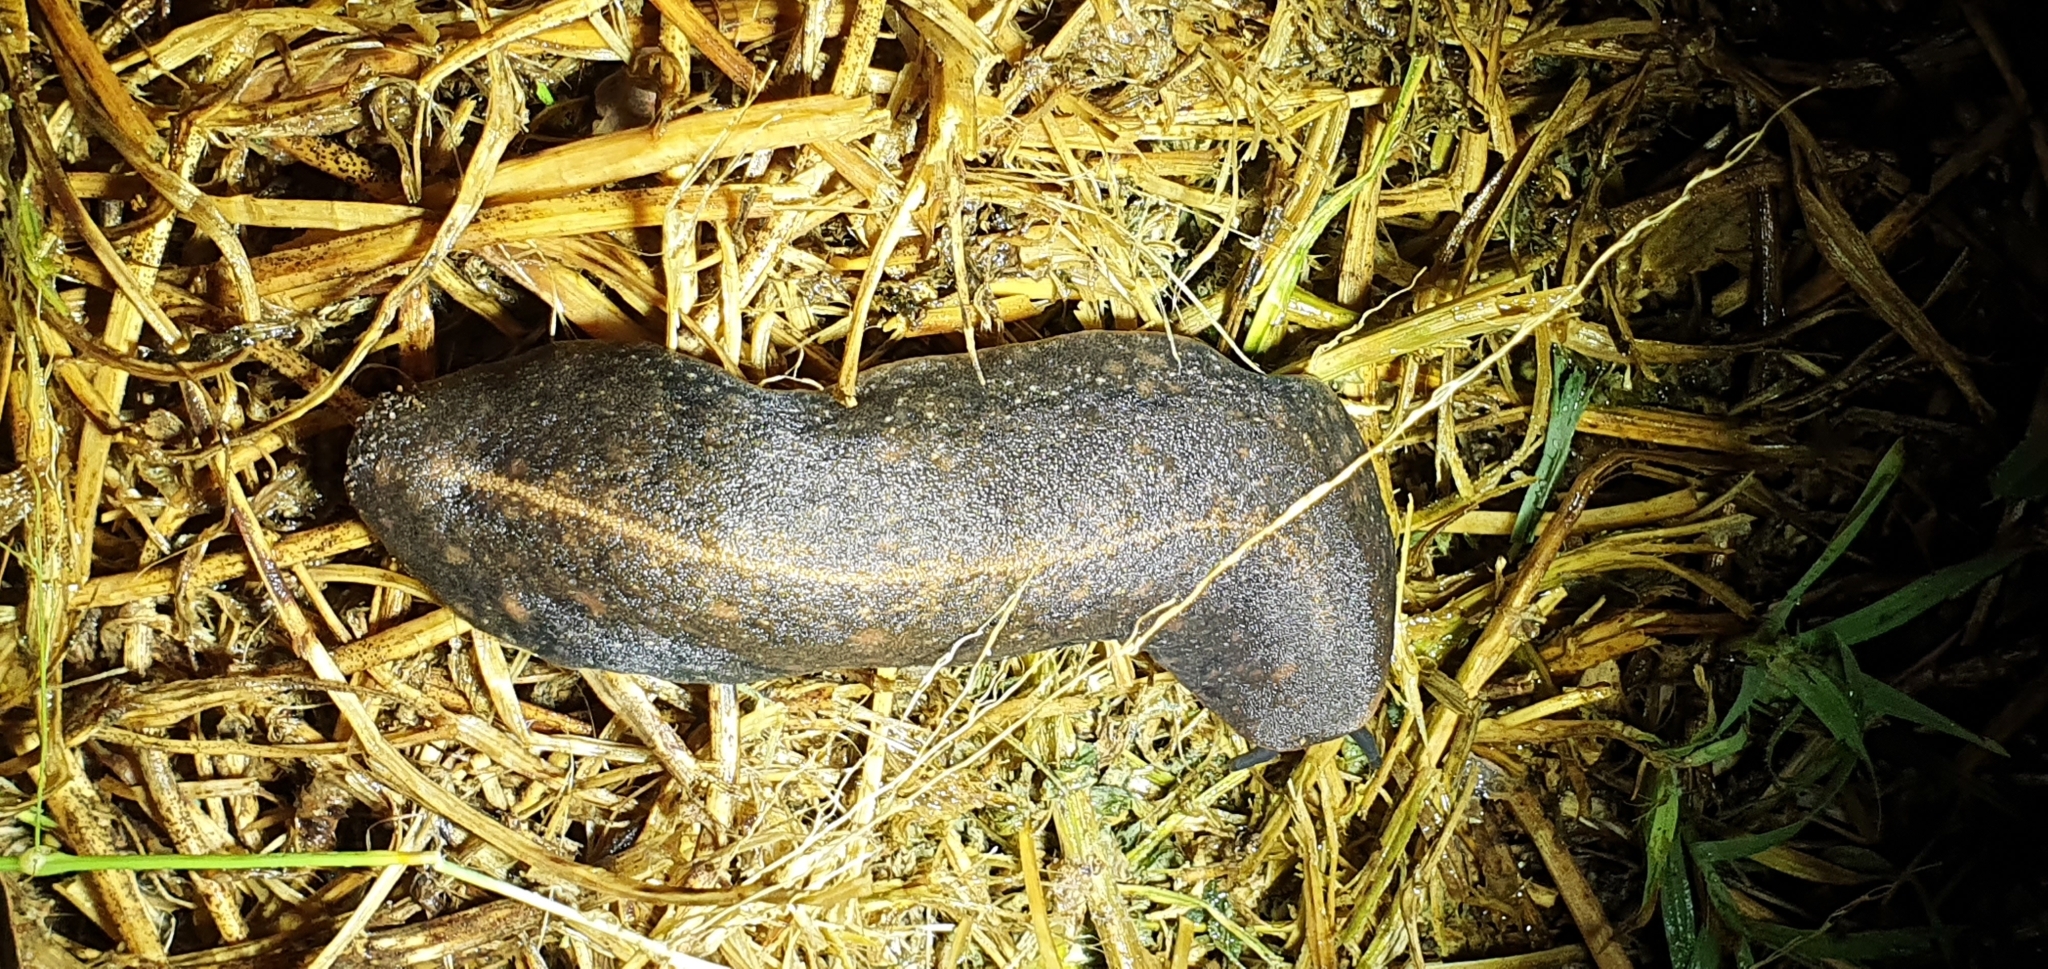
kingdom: Animalia
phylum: Mollusca
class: Gastropoda
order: Systellommatophora
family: Veronicellidae
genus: Laevicaulis
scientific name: Laevicaulis alte
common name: Tropical leatherleaf
